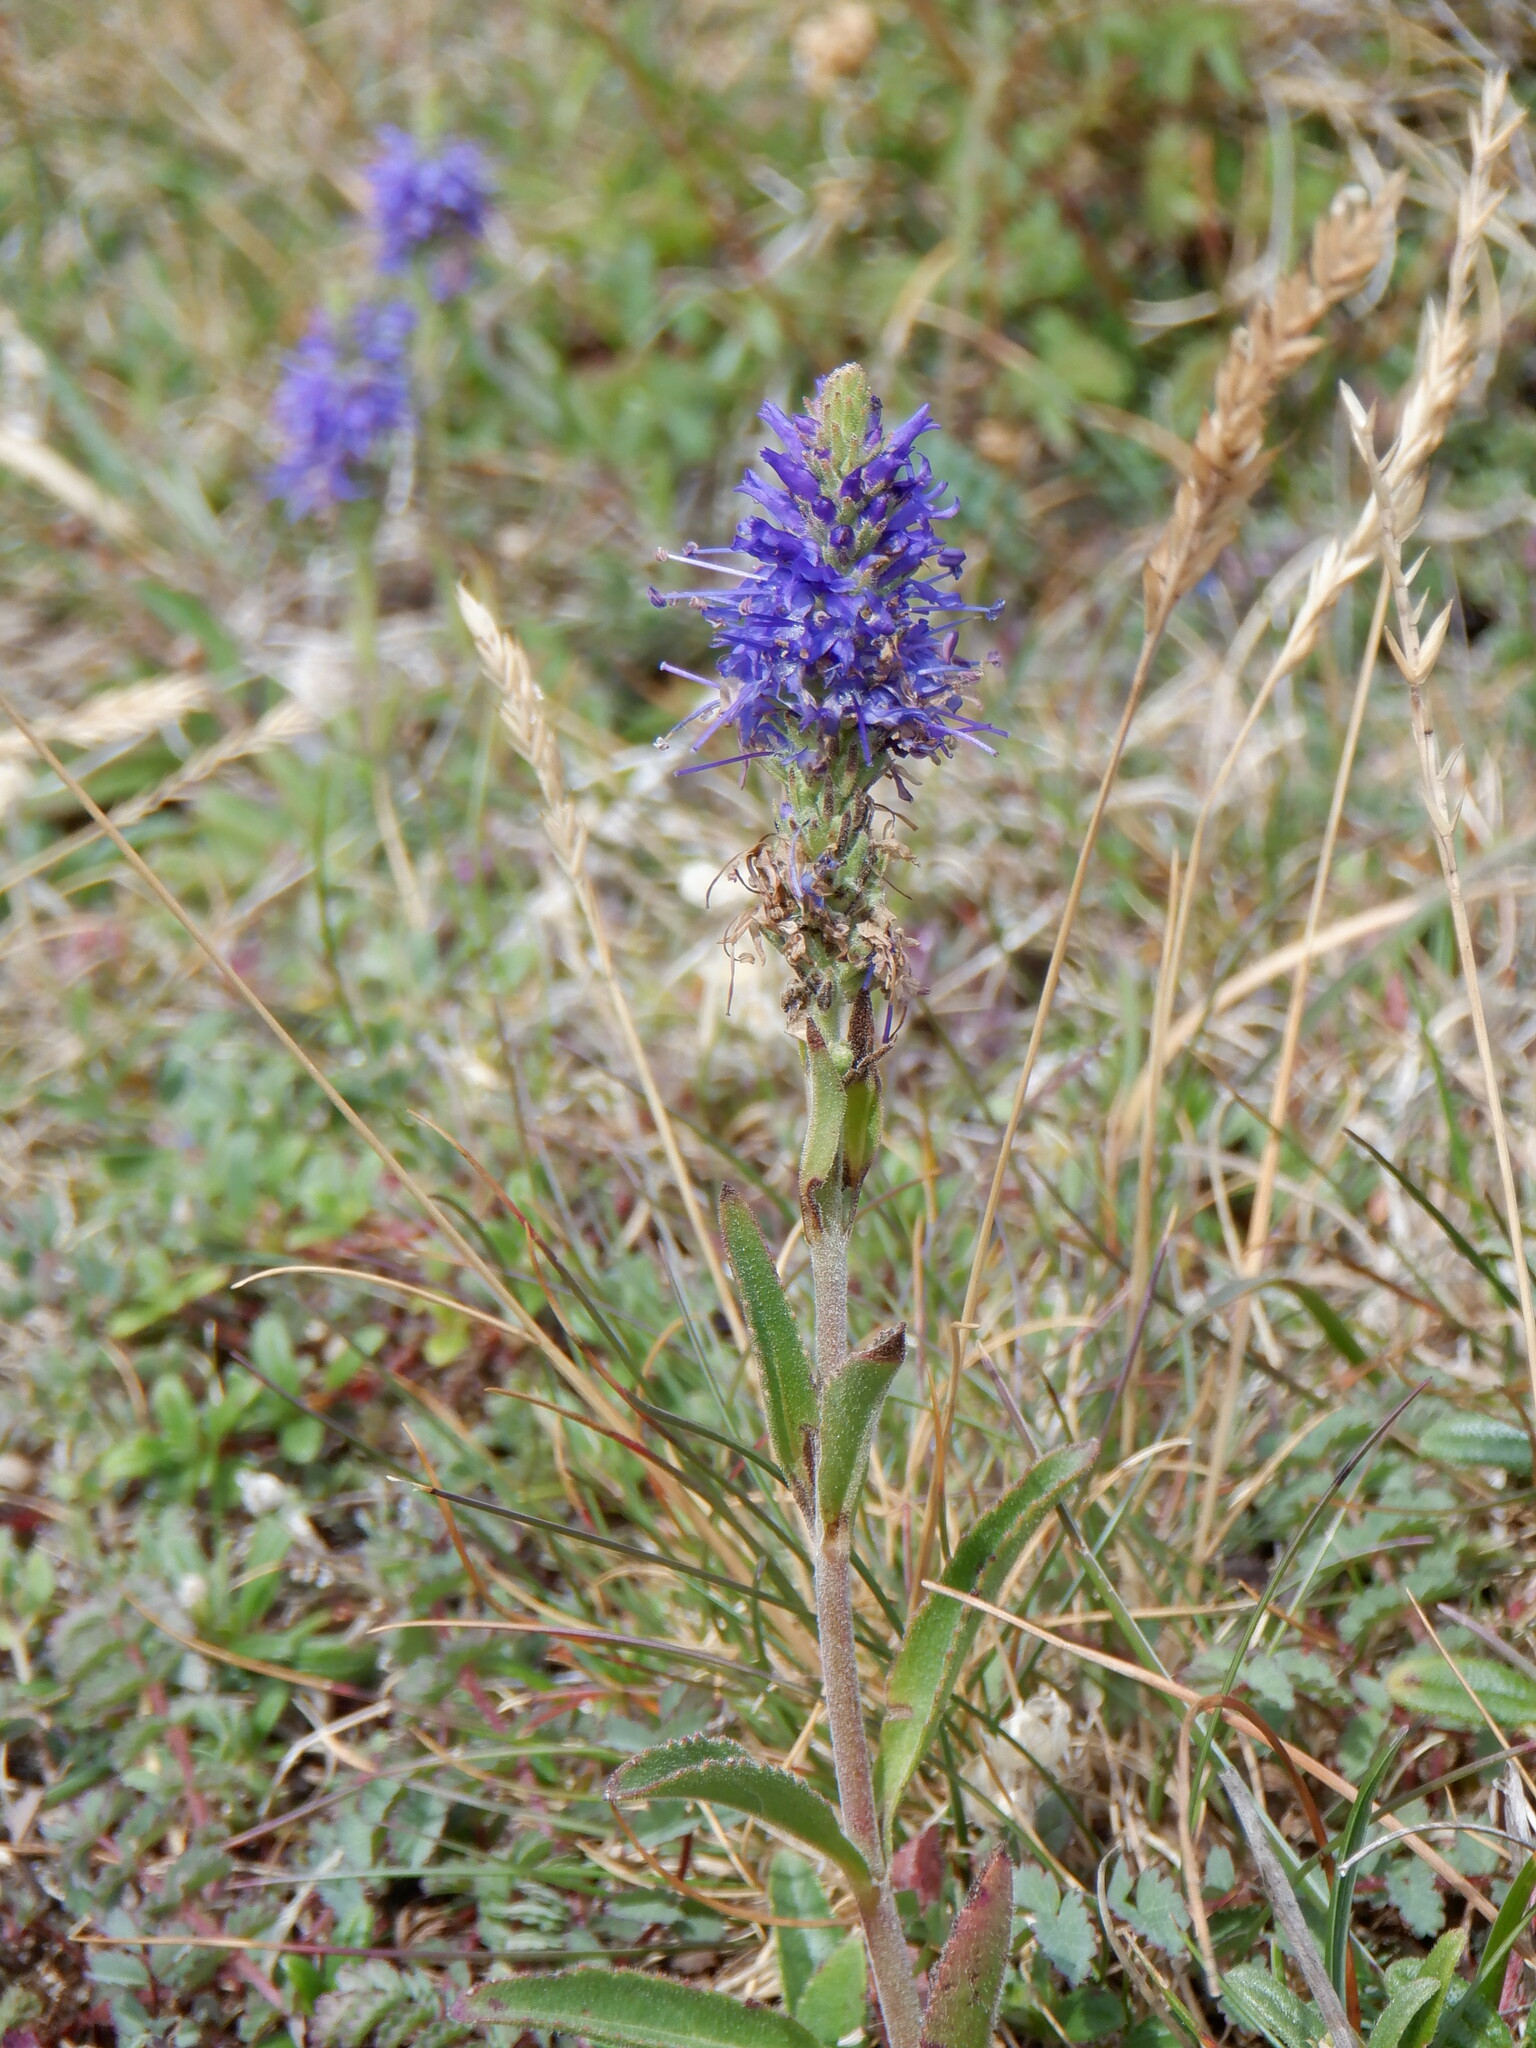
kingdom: Plantae
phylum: Tracheophyta
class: Magnoliopsida
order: Lamiales
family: Plantaginaceae
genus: Veronica
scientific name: Veronica spicata
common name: Spiked speedwell
